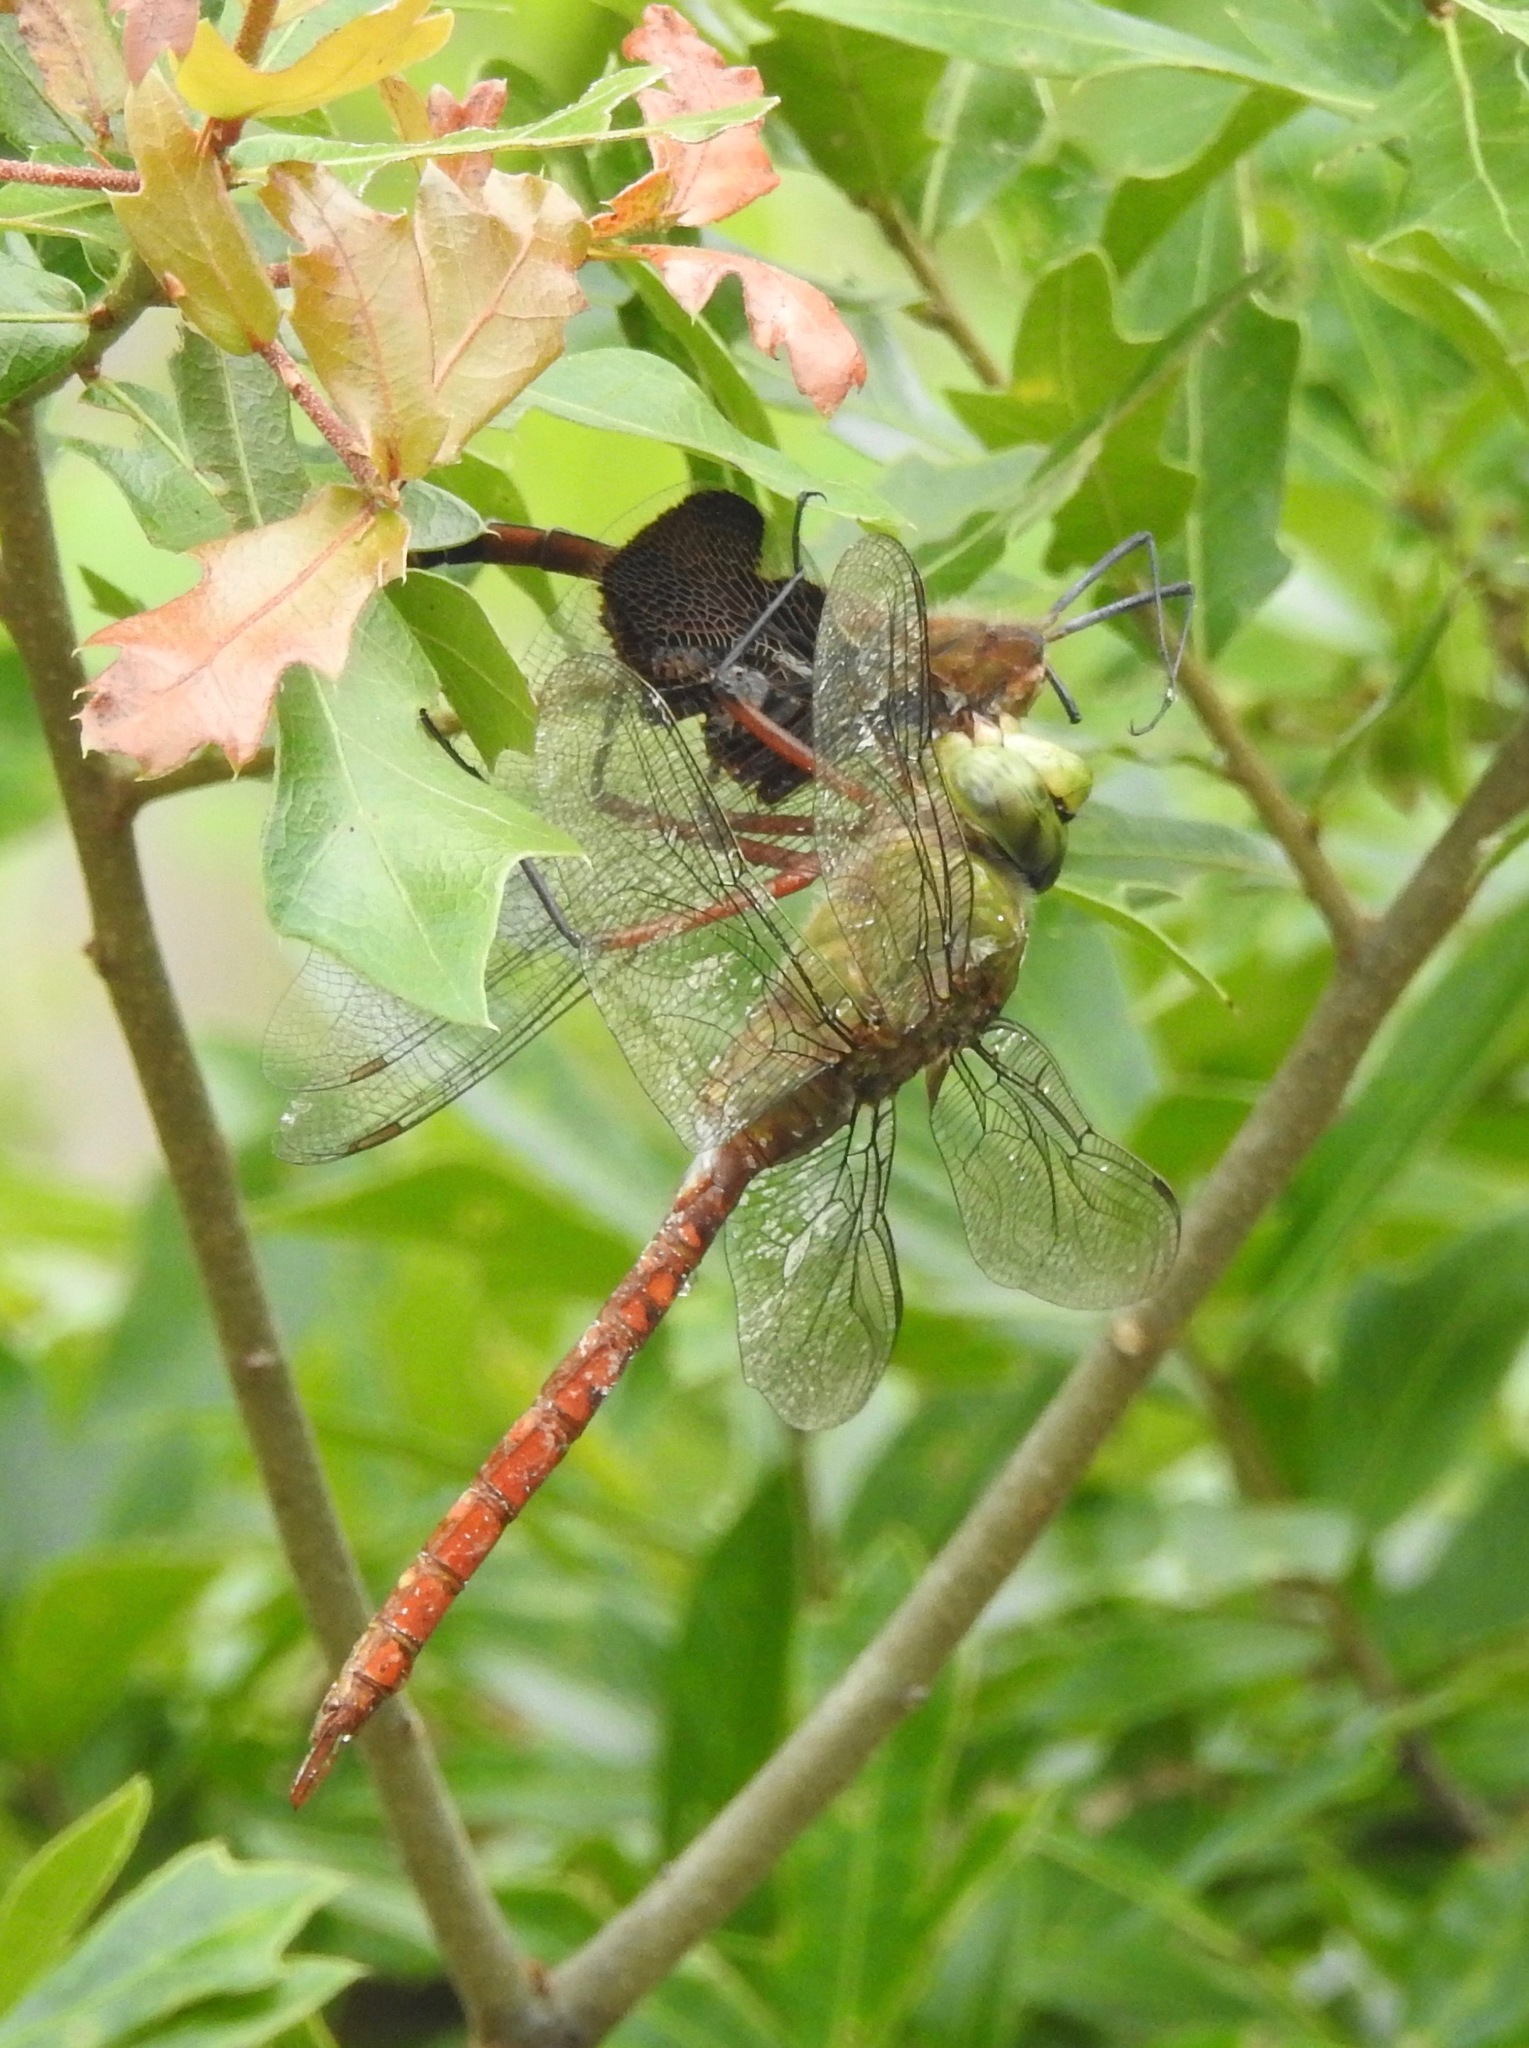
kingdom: Animalia
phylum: Arthropoda
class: Insecta
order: Odonata
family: Aeshnidae
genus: Anax
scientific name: Anax longipes
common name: Comet darner
